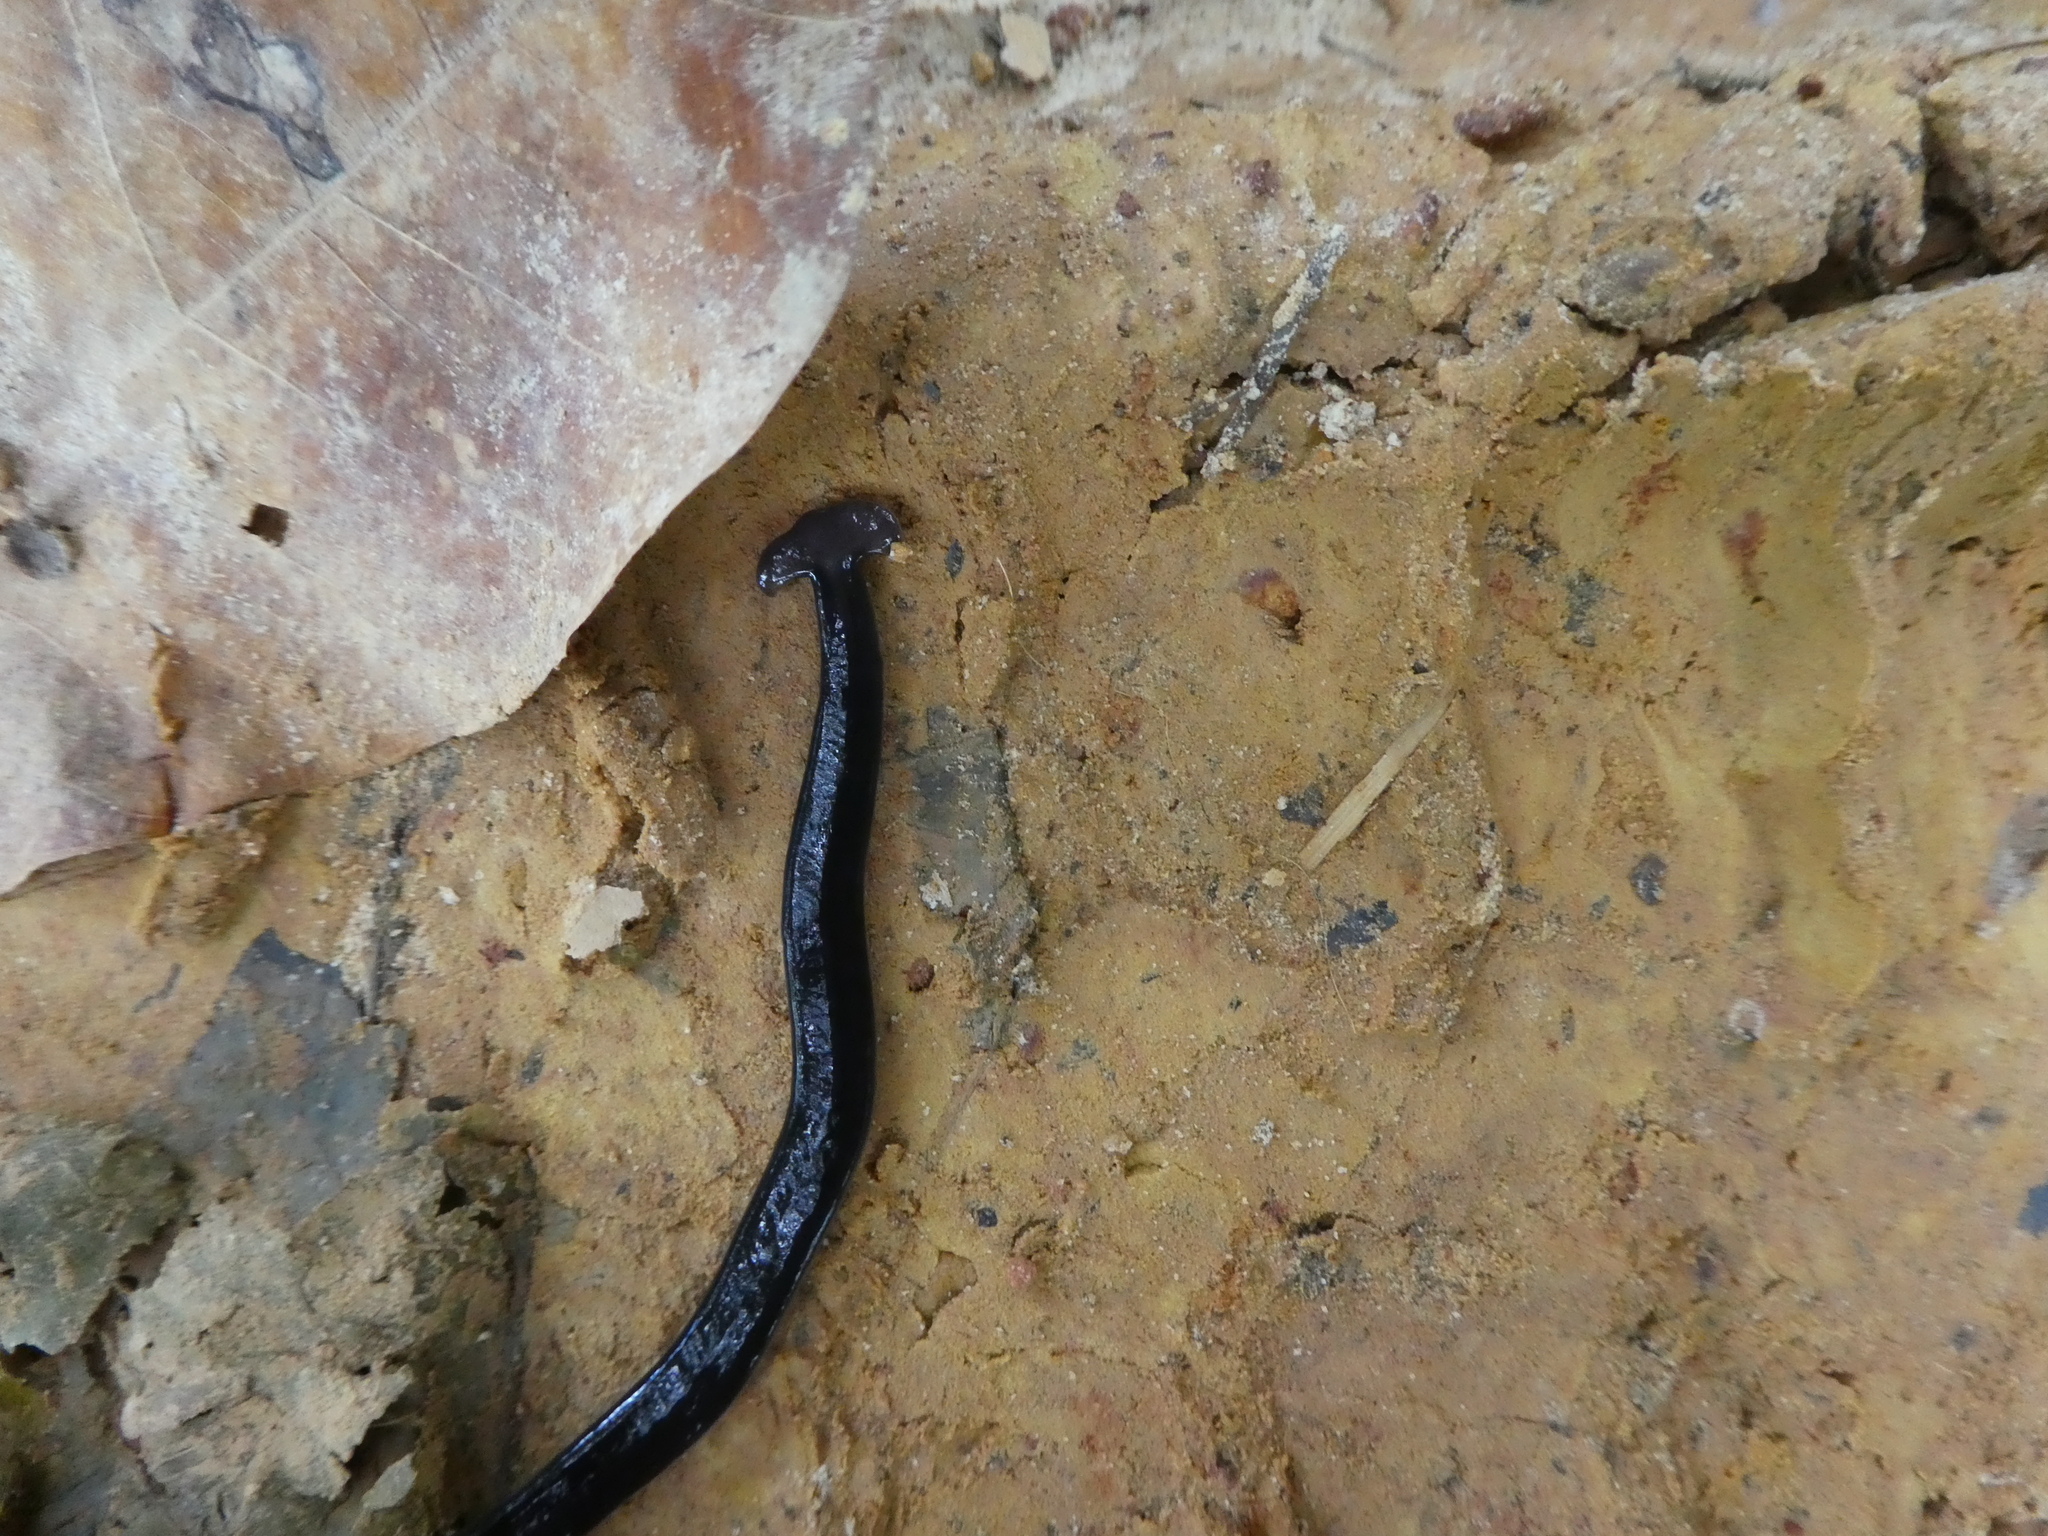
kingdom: Animalia
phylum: Platyhelminthes
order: Tricladida
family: Geoplanidae
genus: Bipalium
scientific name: Bipalium javanum
